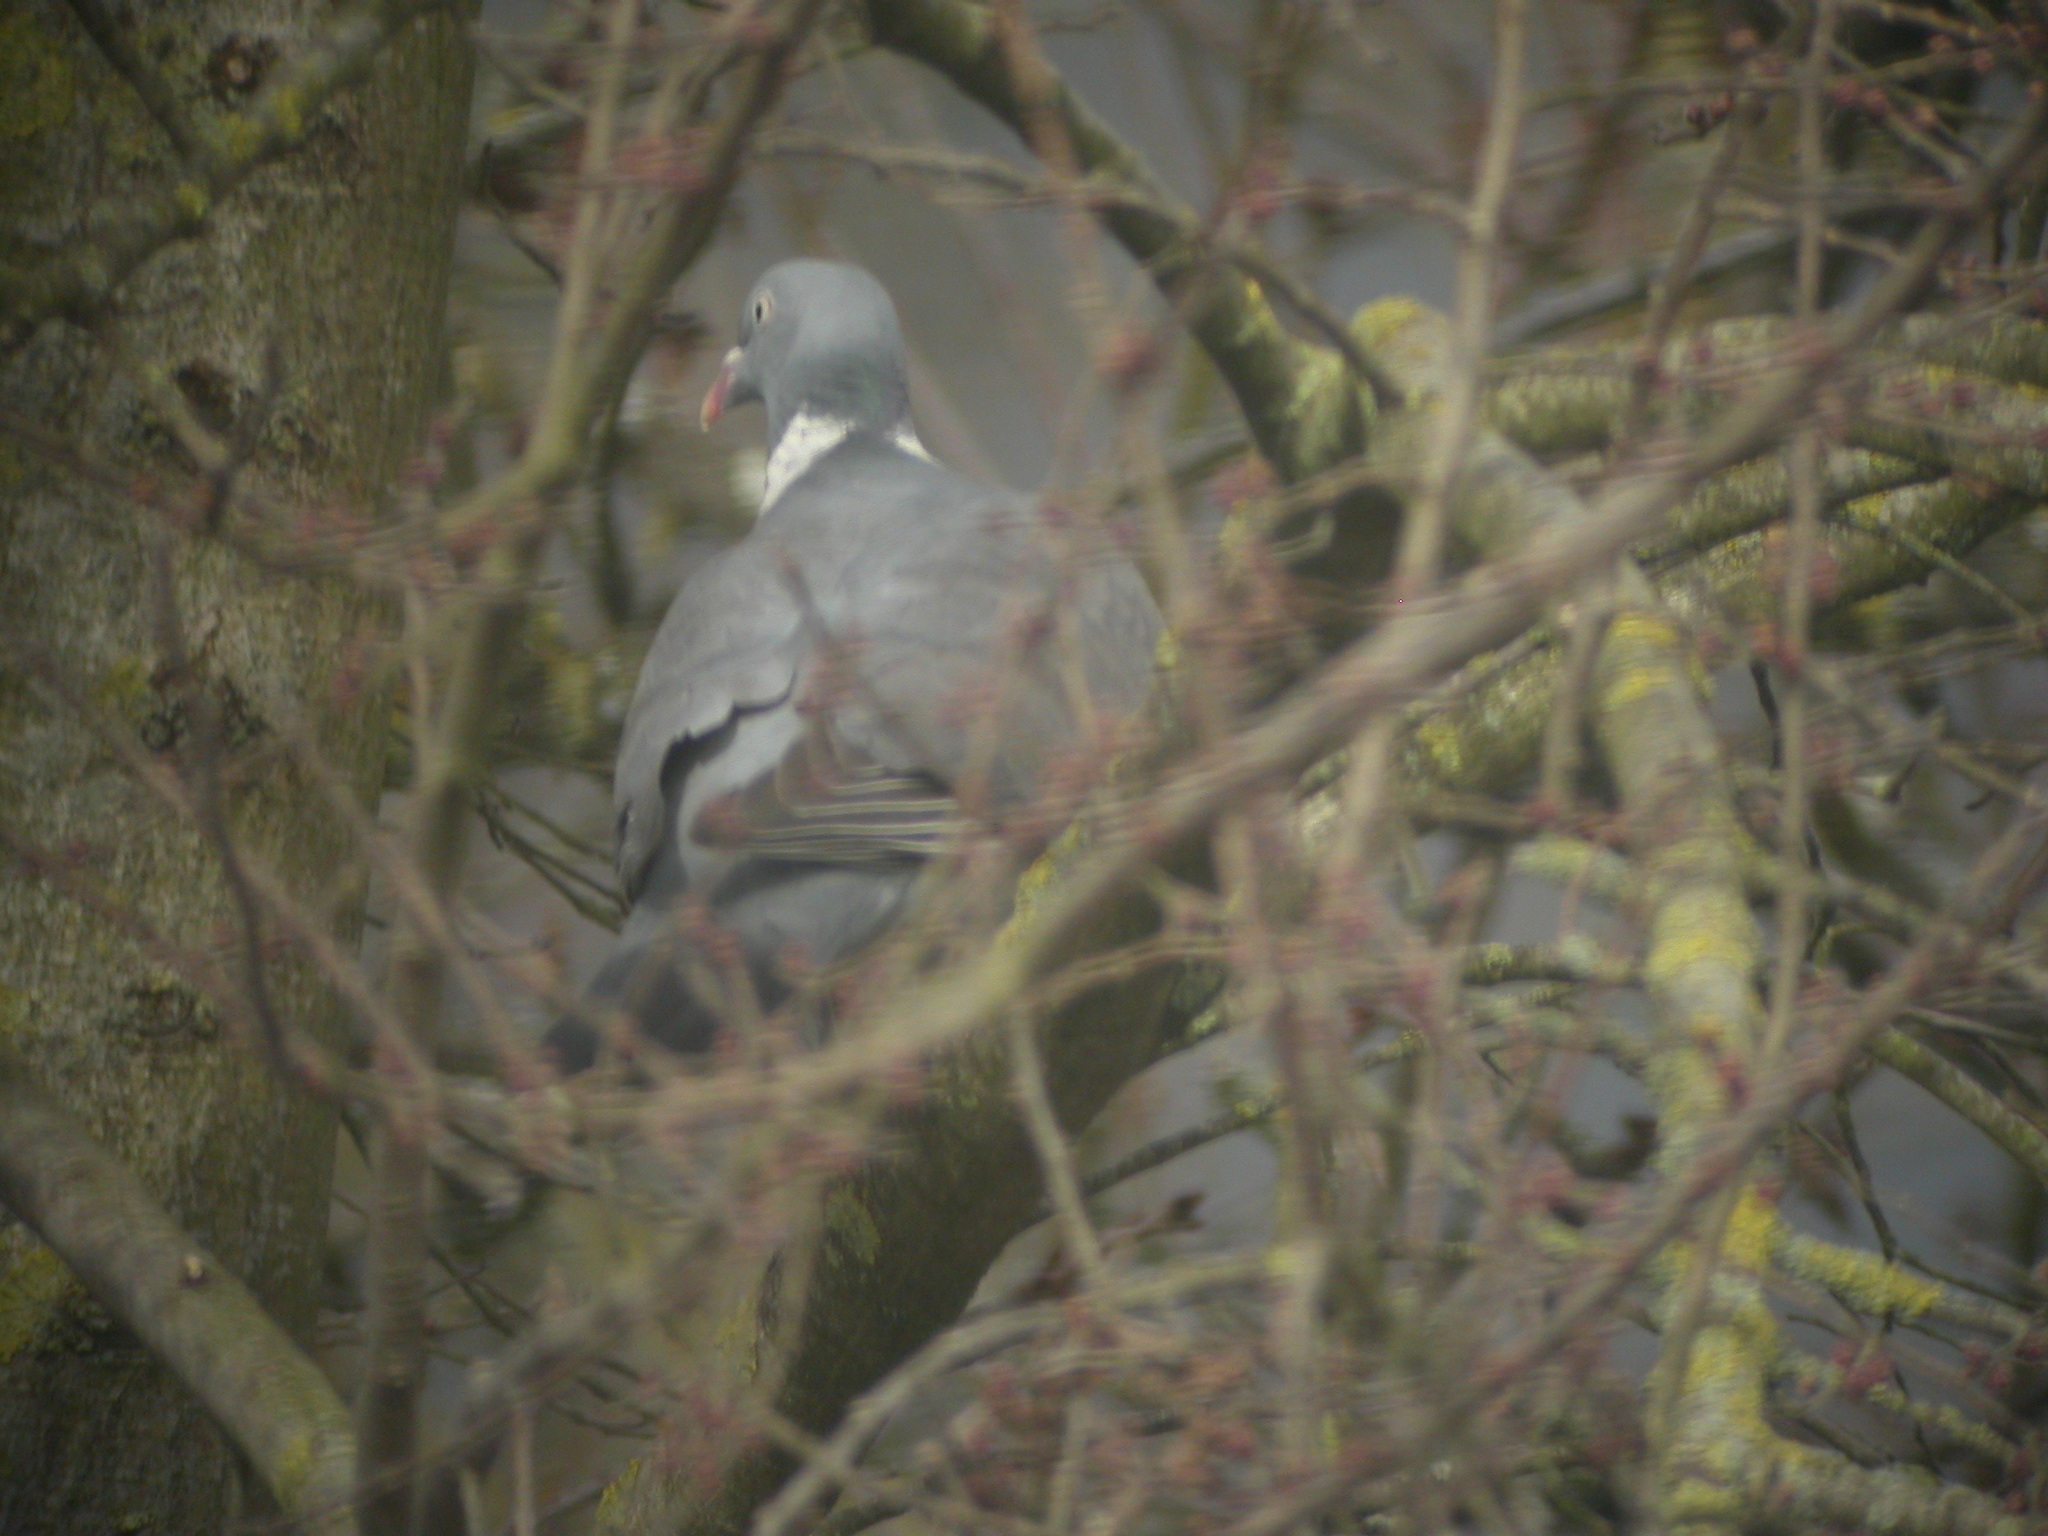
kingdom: Animalia
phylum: Chordata
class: Aves
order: Columbiformes
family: Columbidae
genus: Columba
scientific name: Columba palumbus
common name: Common wood pigeon
